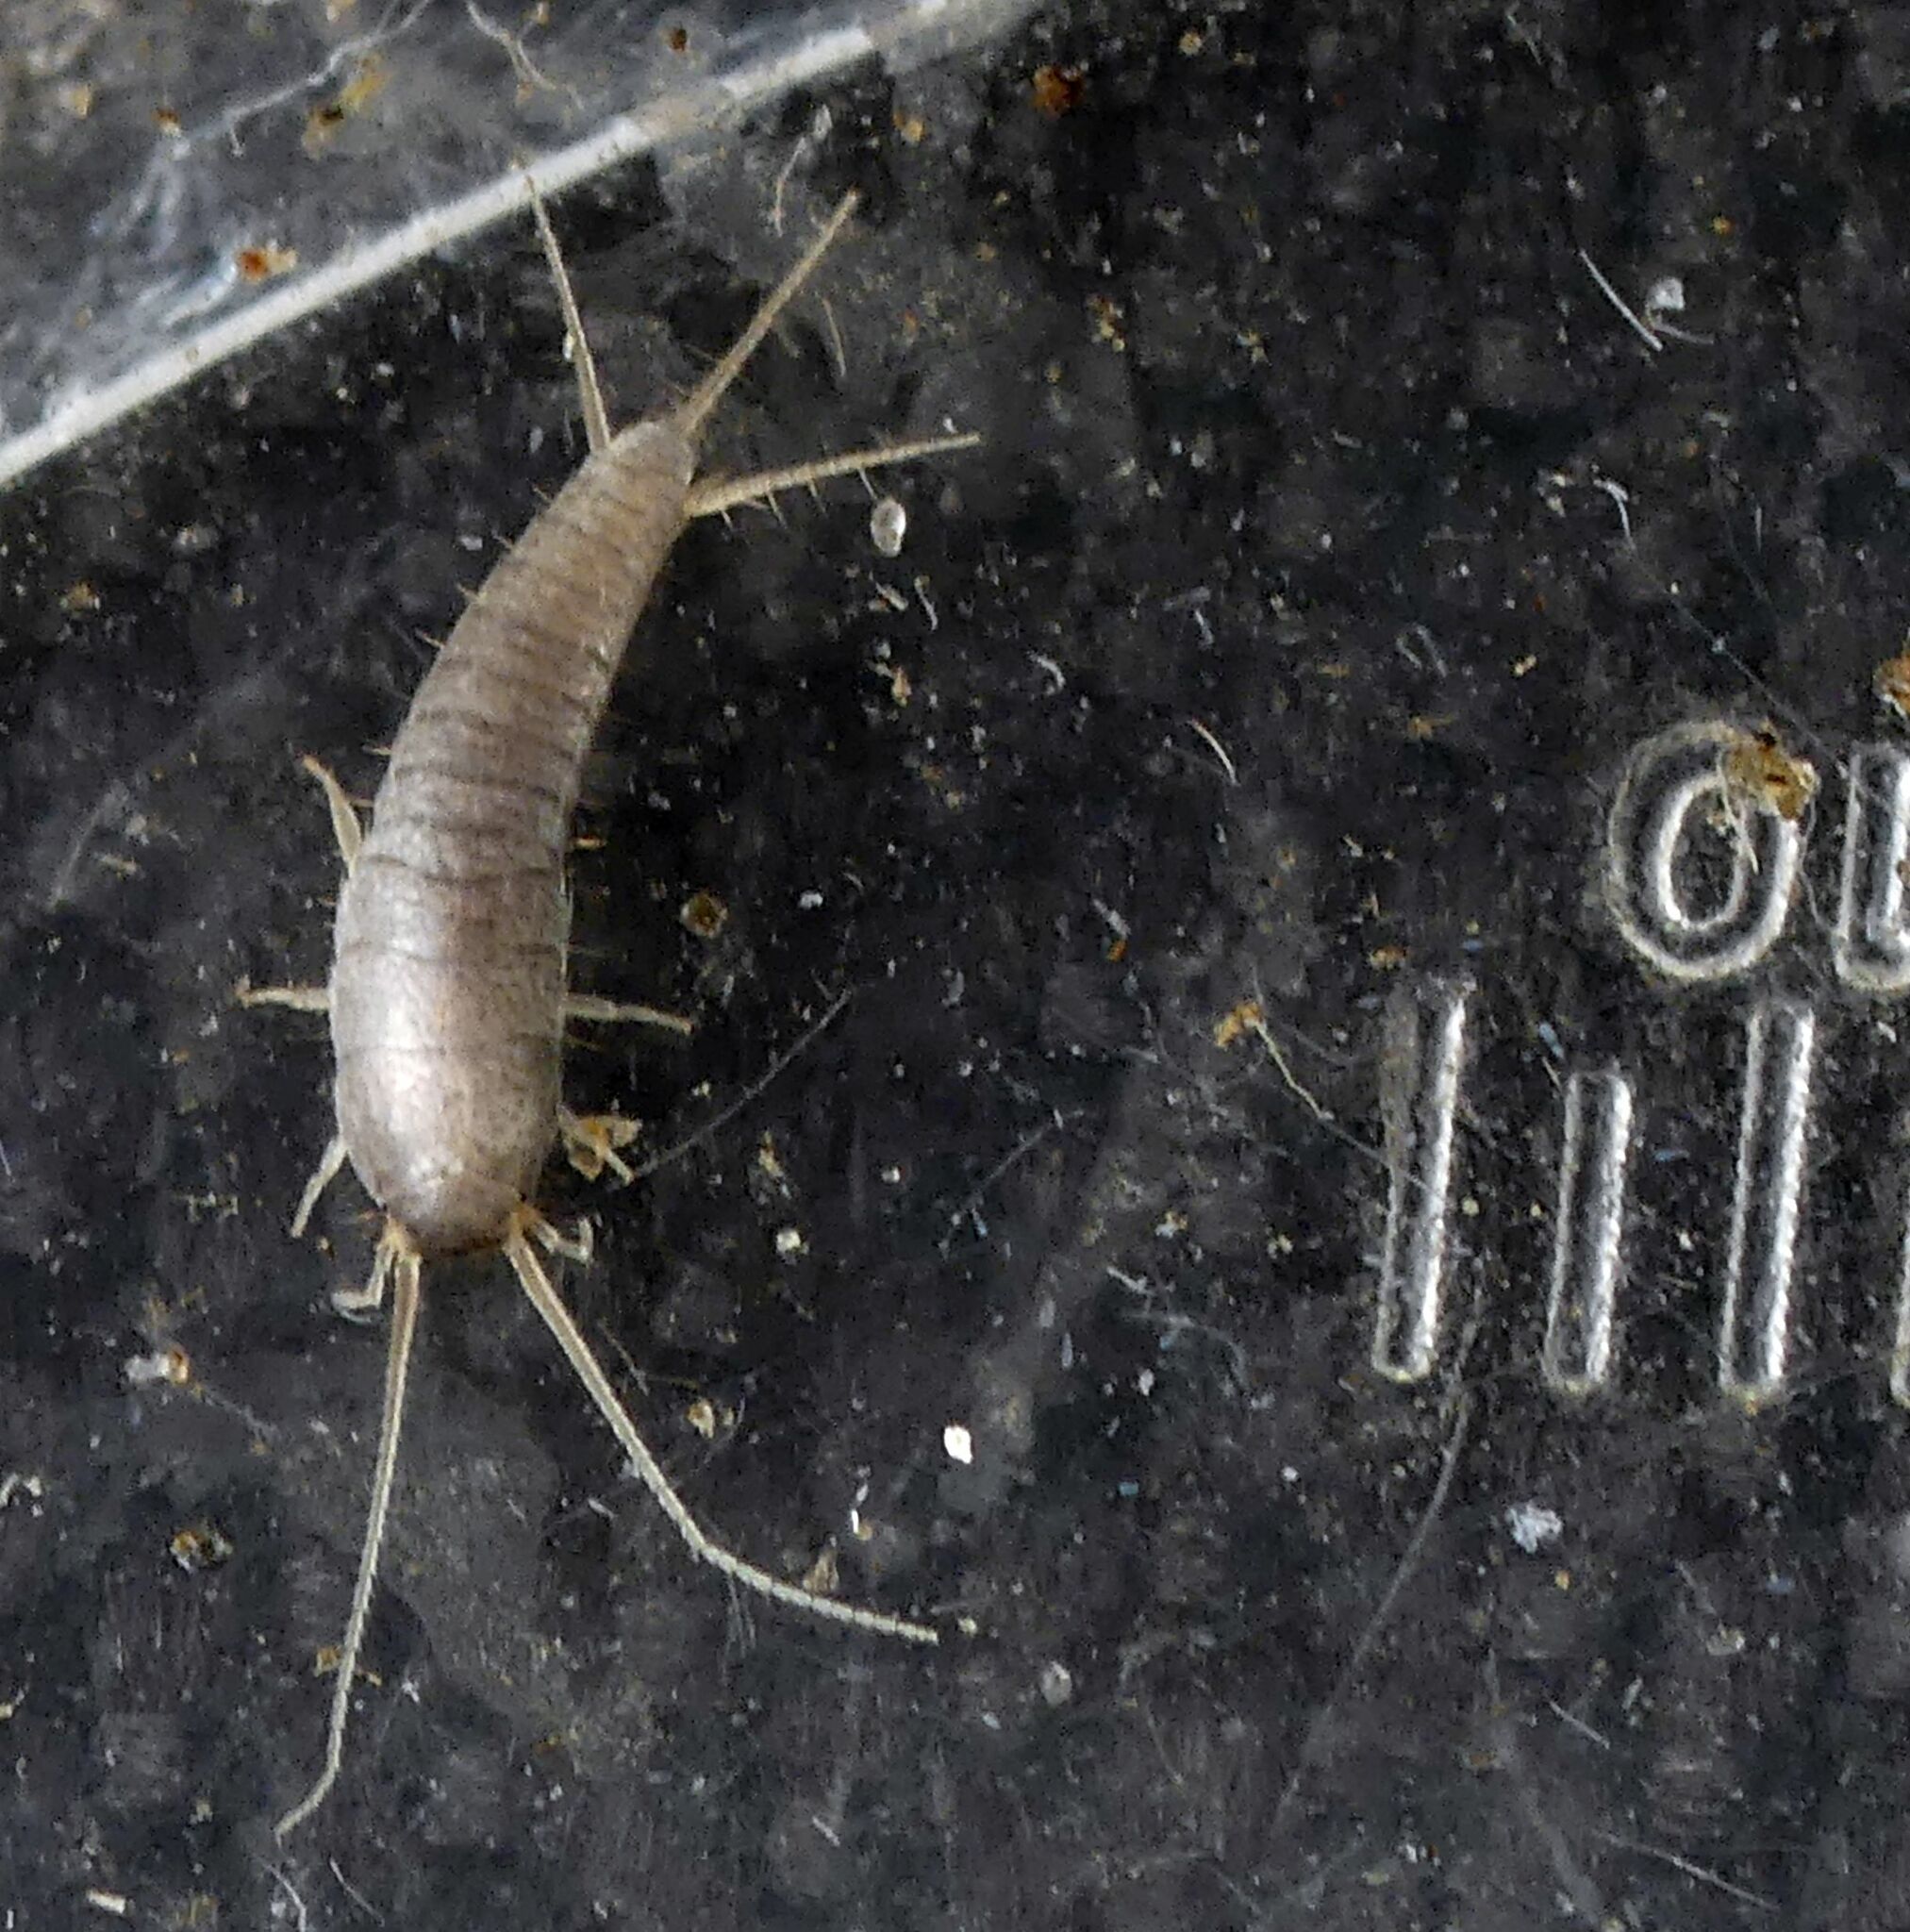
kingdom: Animalia
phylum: Arthropoda
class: Insecta
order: Zygentoma
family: Lepismatidae
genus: Lepisma
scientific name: Lepisma saccharinum
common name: Silverfish
